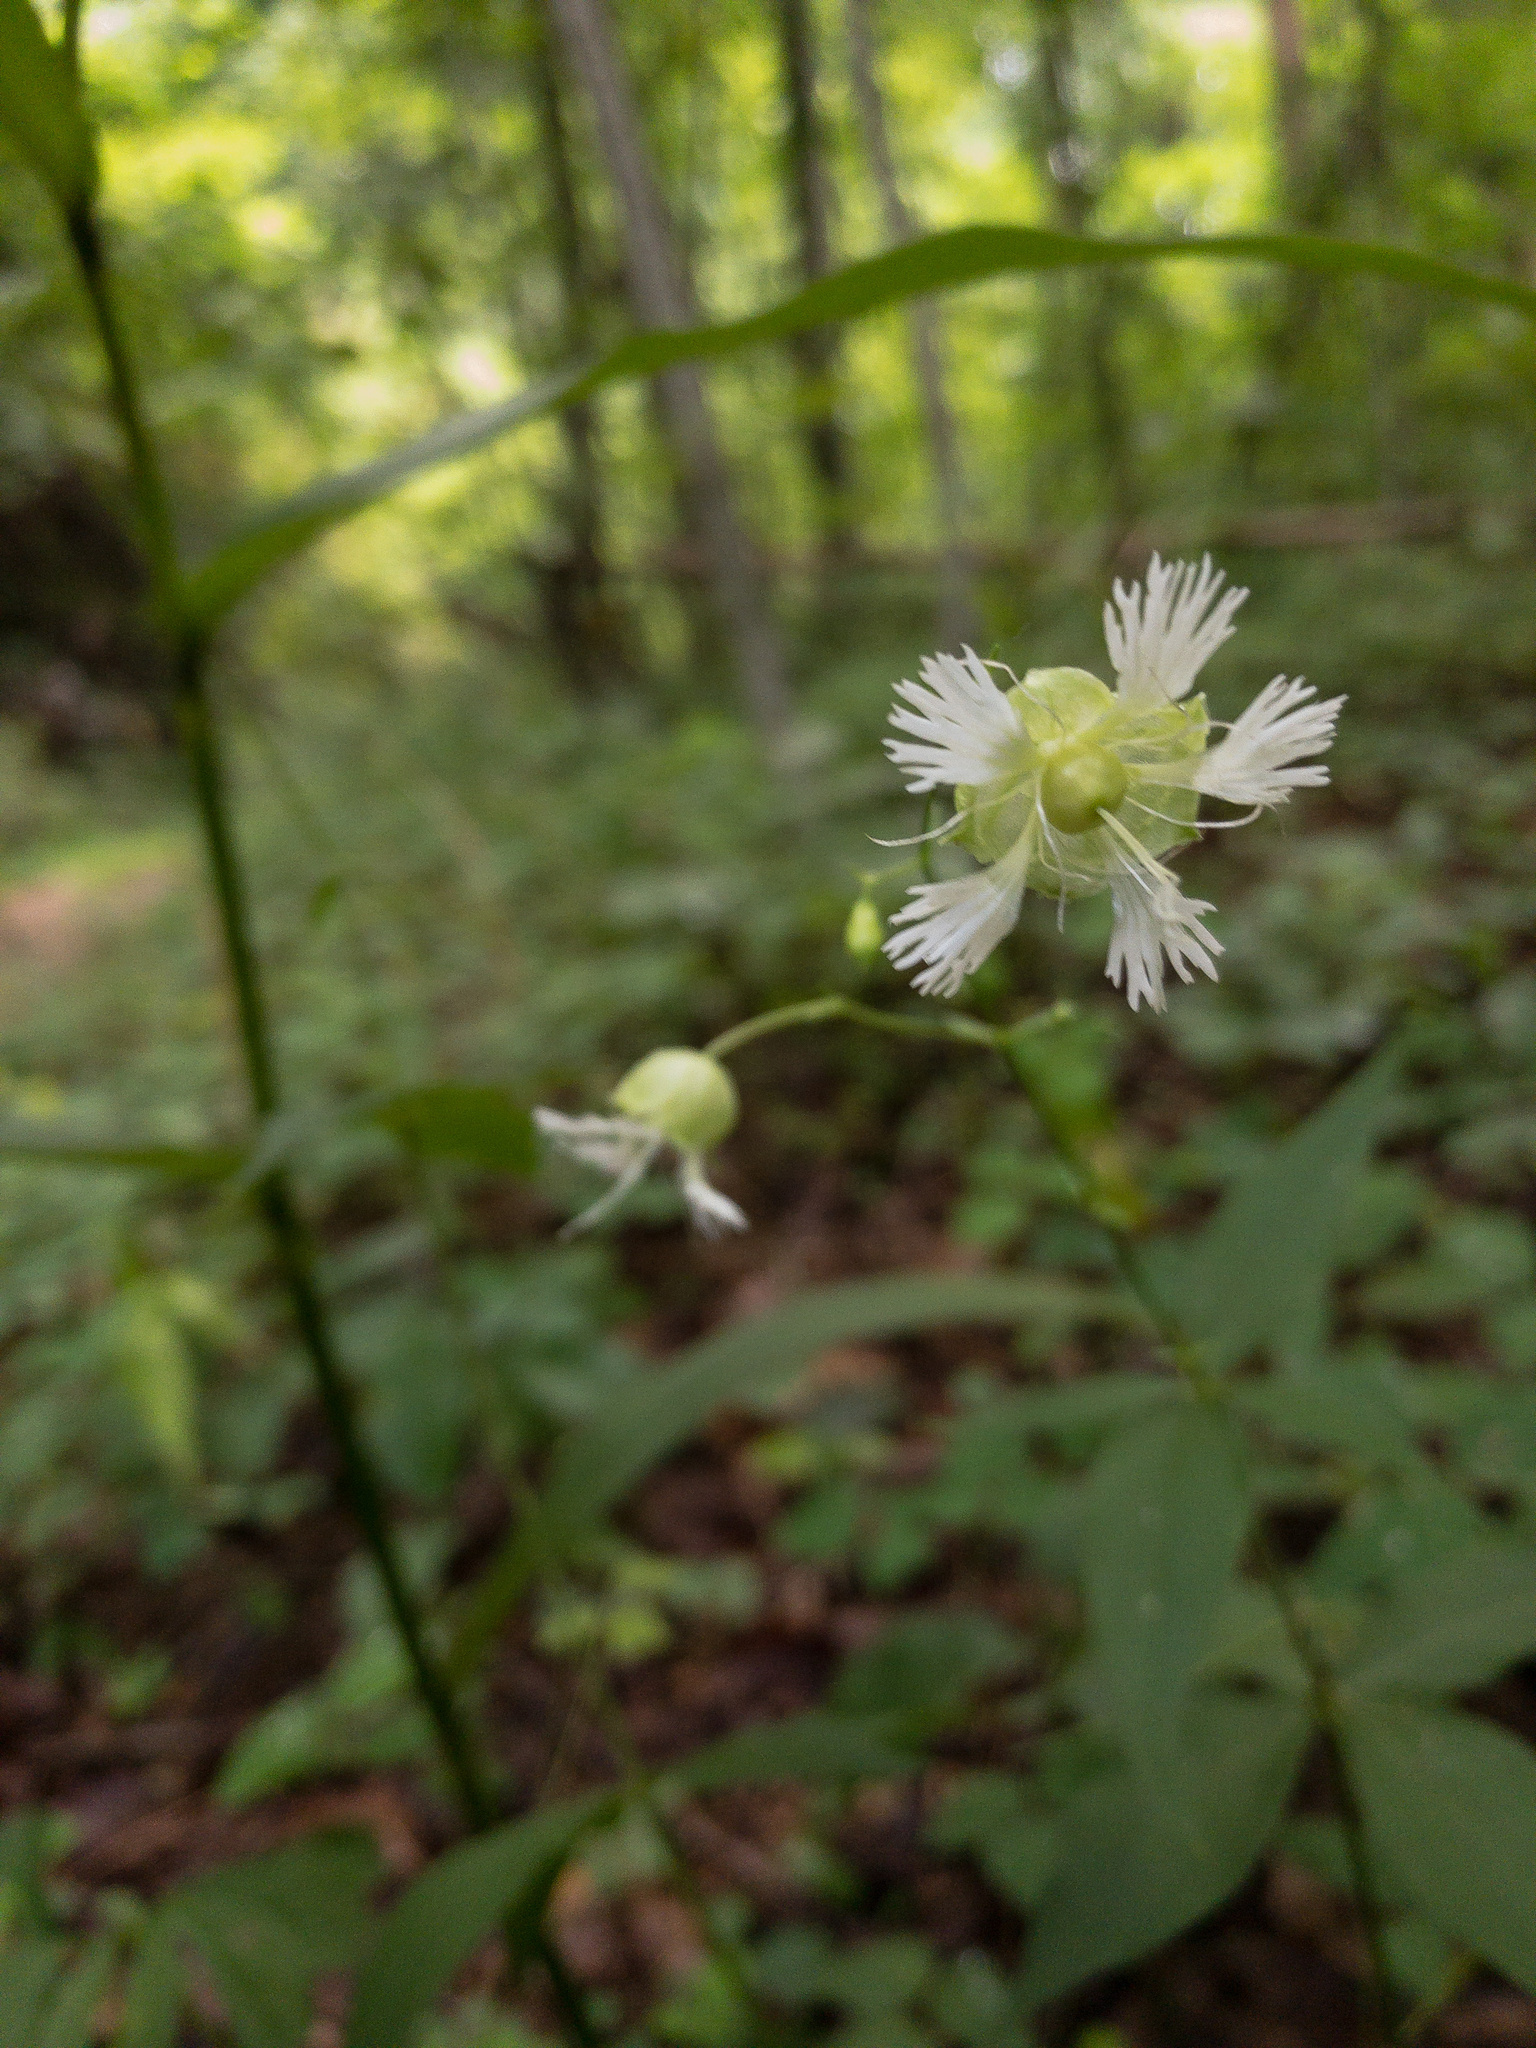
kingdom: Plantae
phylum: Tracheophyta
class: Magnoliopsida
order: Caryophyllales
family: Caryophyllaceae
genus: Silene
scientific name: Silene stellata
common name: Starry campion
